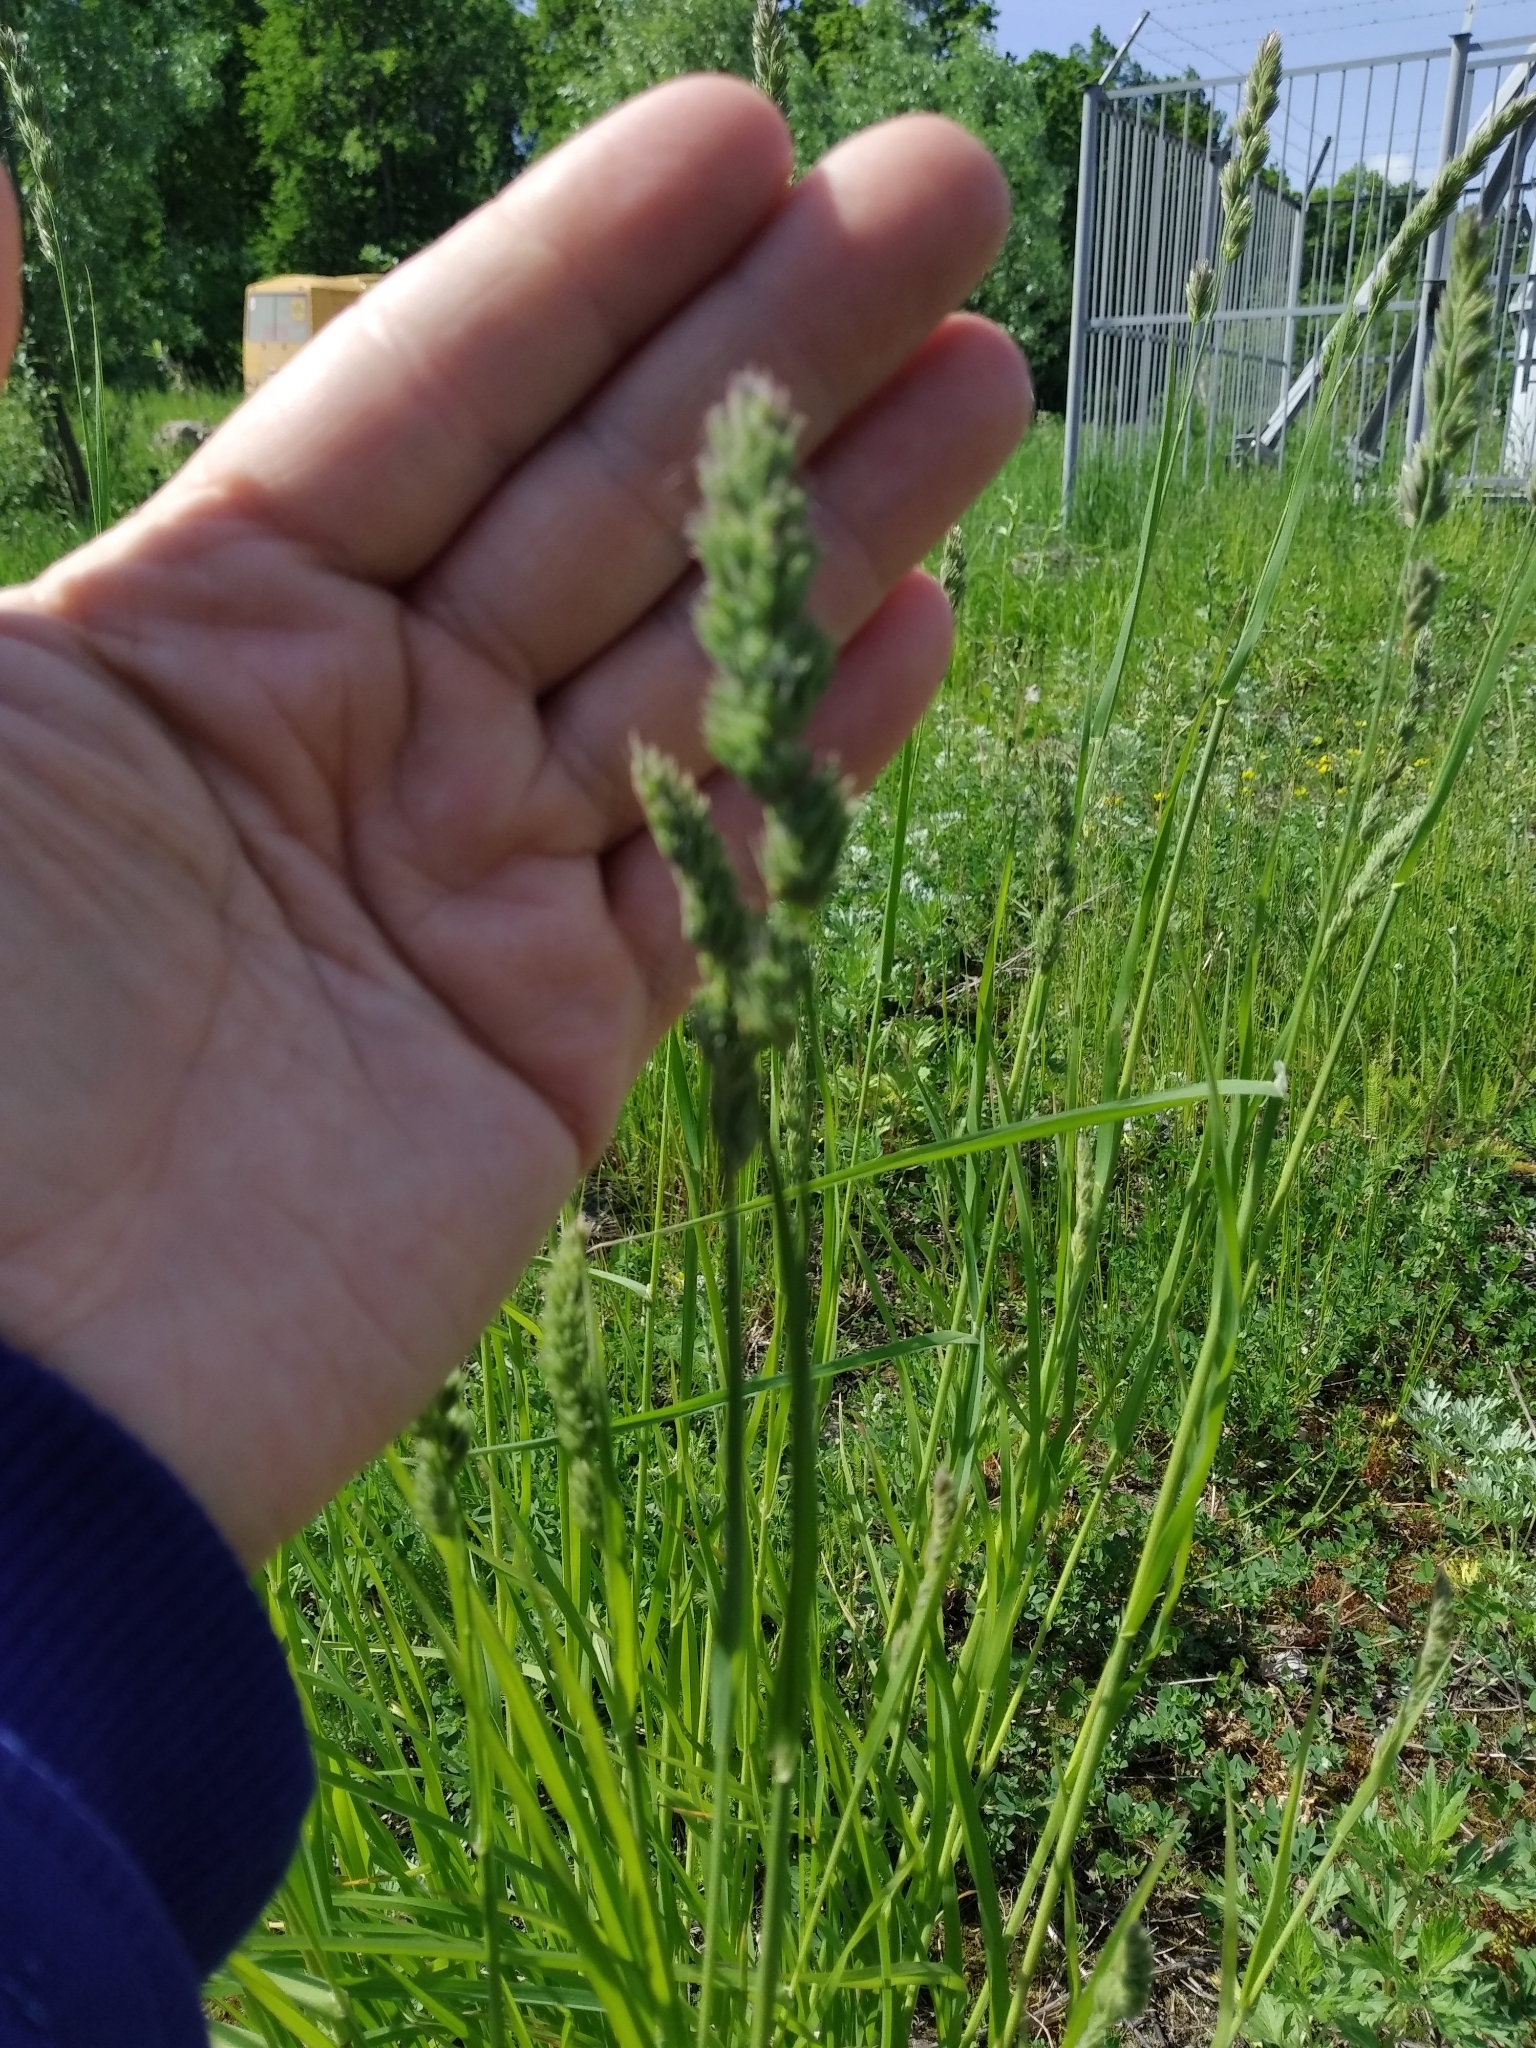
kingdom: Plantae
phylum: Tracheophyta
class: Liliopsida
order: Poales
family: Poaceae
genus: Dactylis
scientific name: Dactylis glomerata
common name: Orchardgrass
